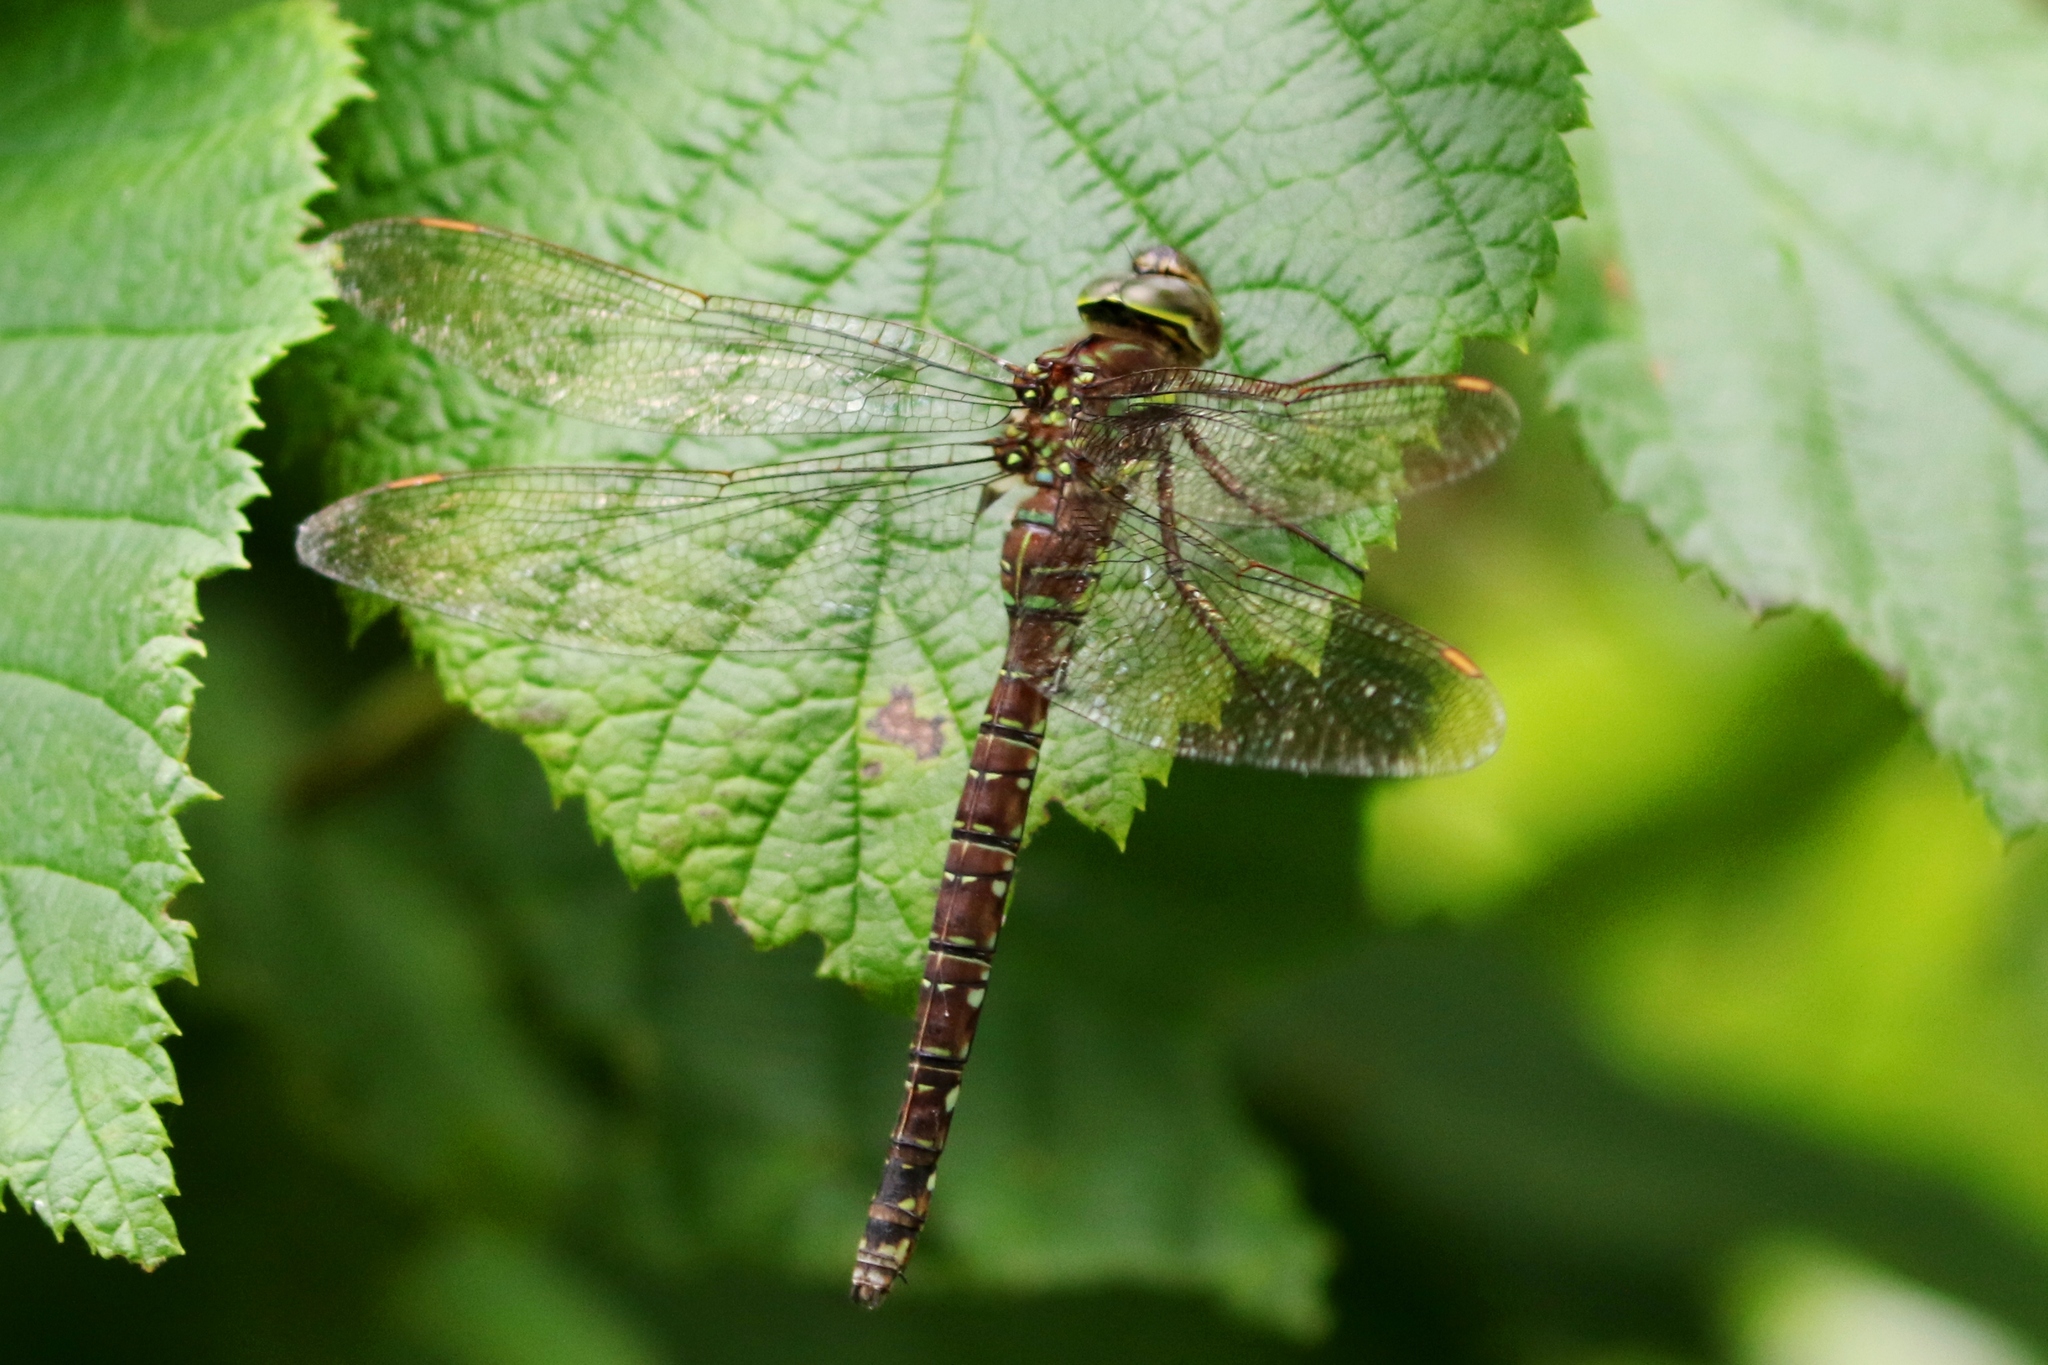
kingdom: Animalia
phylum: Arthropoda
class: Insecta
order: Odonata
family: Aeshnidae
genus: Aeshna
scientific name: Aeshna umbrosa
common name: Shadow darner
